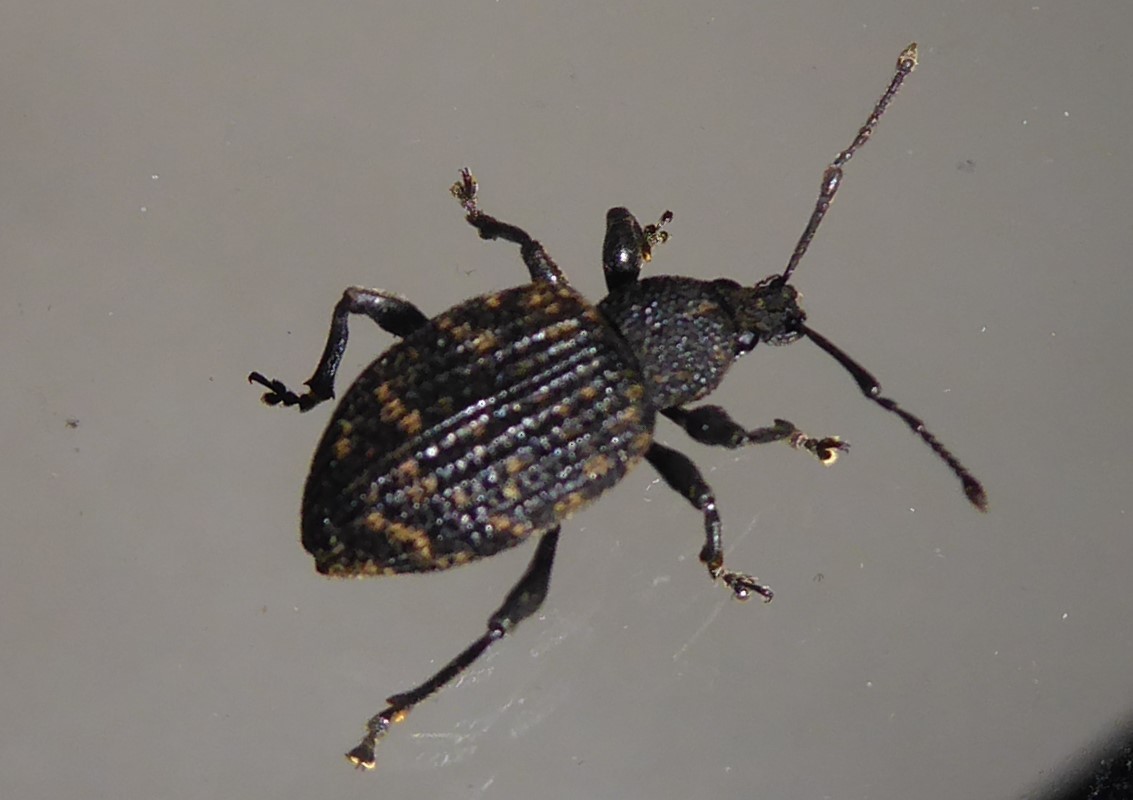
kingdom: Animalia
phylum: Arthropoda
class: Insecta
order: Coleoptera
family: Curculionidae
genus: Otiorhynchus
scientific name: Otiorhynchus sulcatus
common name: Black vine weevil
